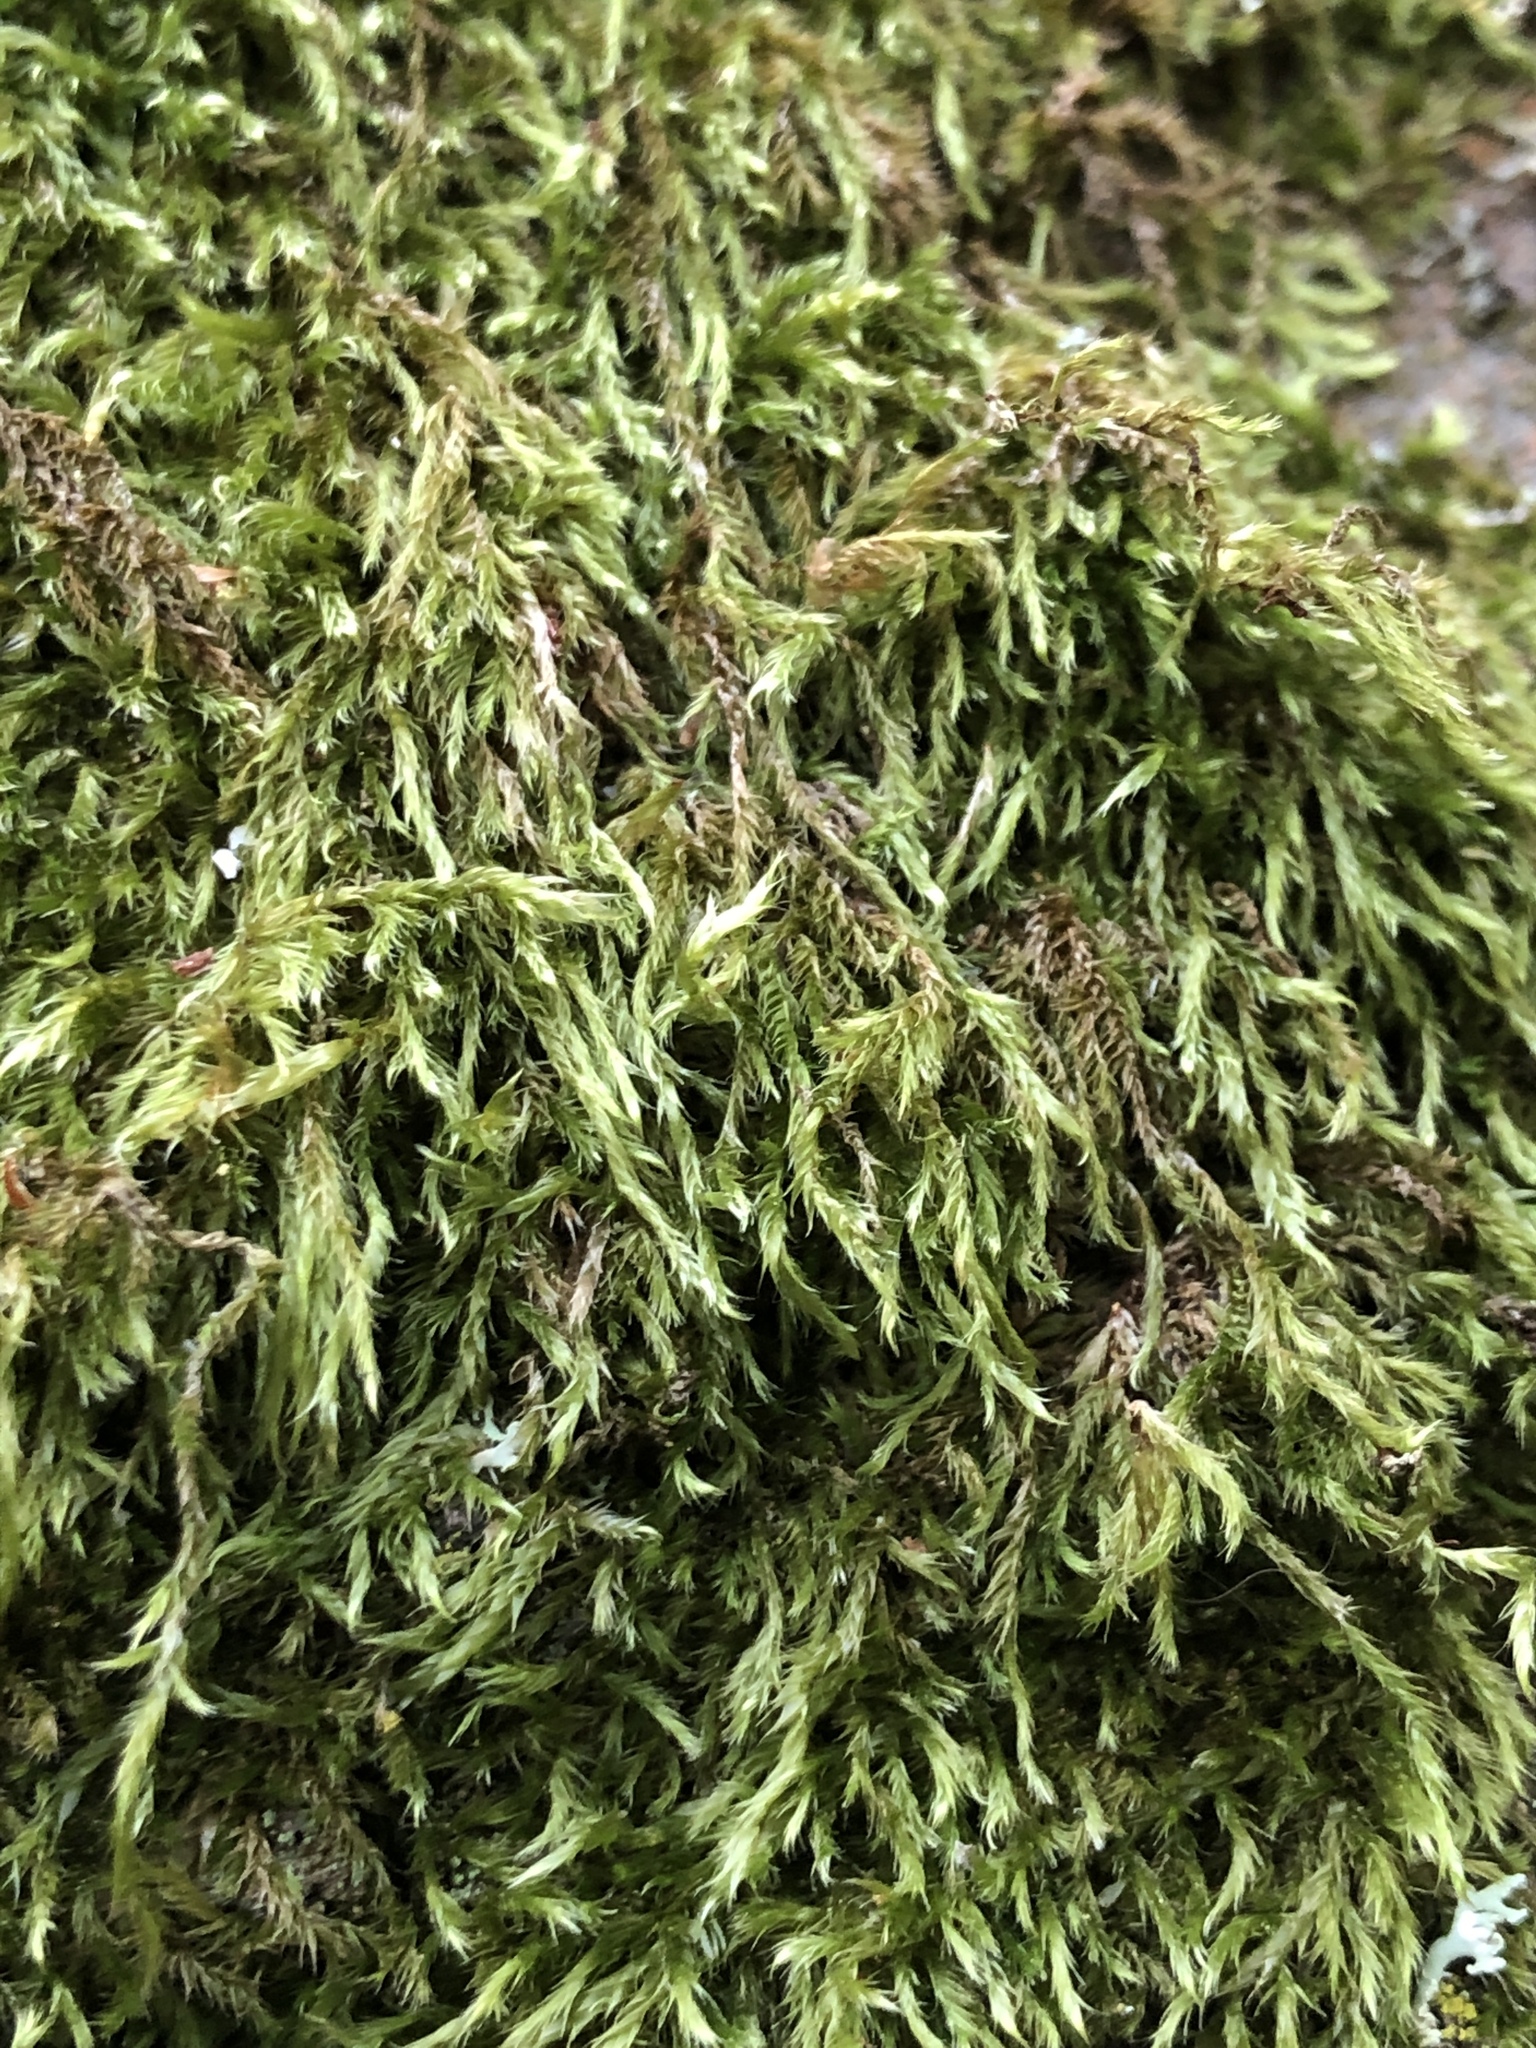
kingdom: Plantae
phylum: Bryophyta
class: Bryopsida
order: Hypnales
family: Hypnaceae
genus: Hypnum
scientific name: Hypnum cupressiforme
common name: Cypress-leaved plait-moss
